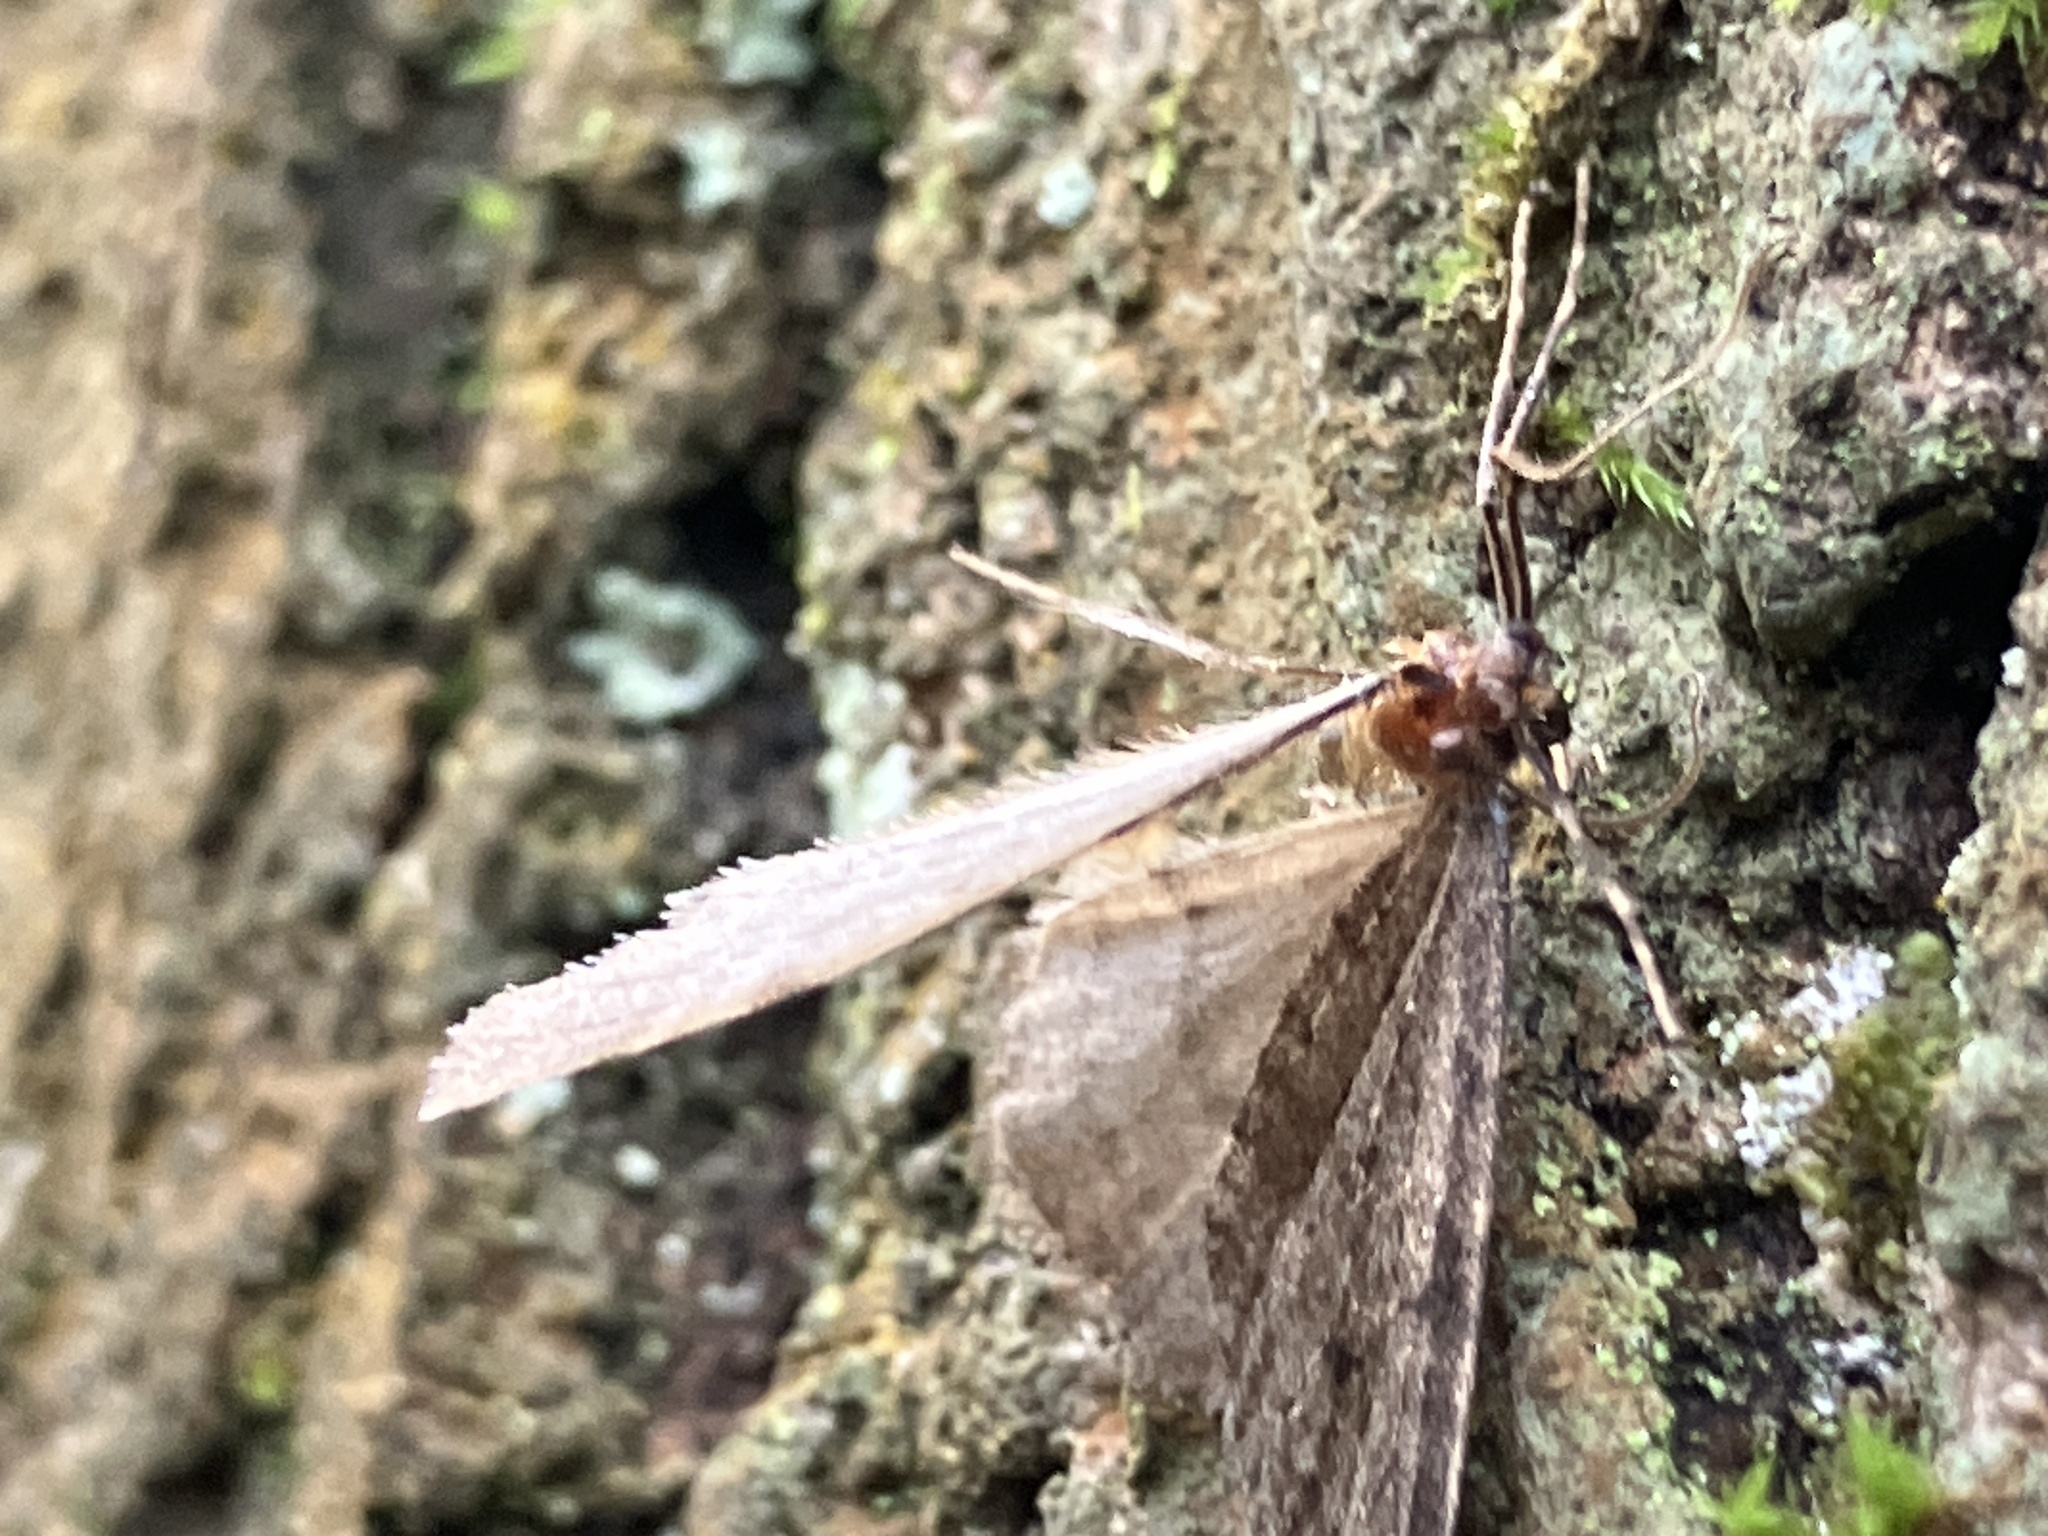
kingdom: Animalia
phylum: Arthropoda
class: Insecta
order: Lepidoptera
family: Geometridae
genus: Operophtera
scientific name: Operophtera brumata
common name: Winter moth
